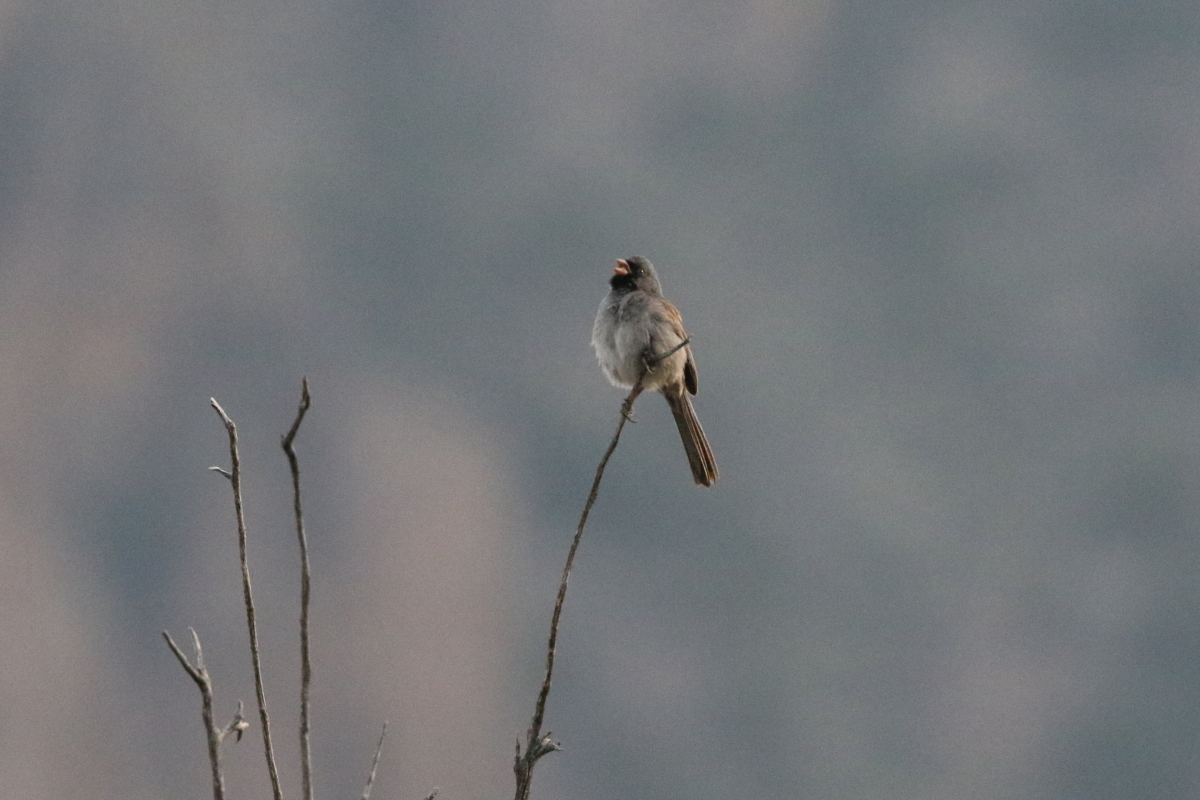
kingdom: Animalia
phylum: Chordata
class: Aves
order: Passeriformes
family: Passerellidae
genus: Spizella
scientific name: Spizella atrogularis
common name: Black-chinned sparrow
